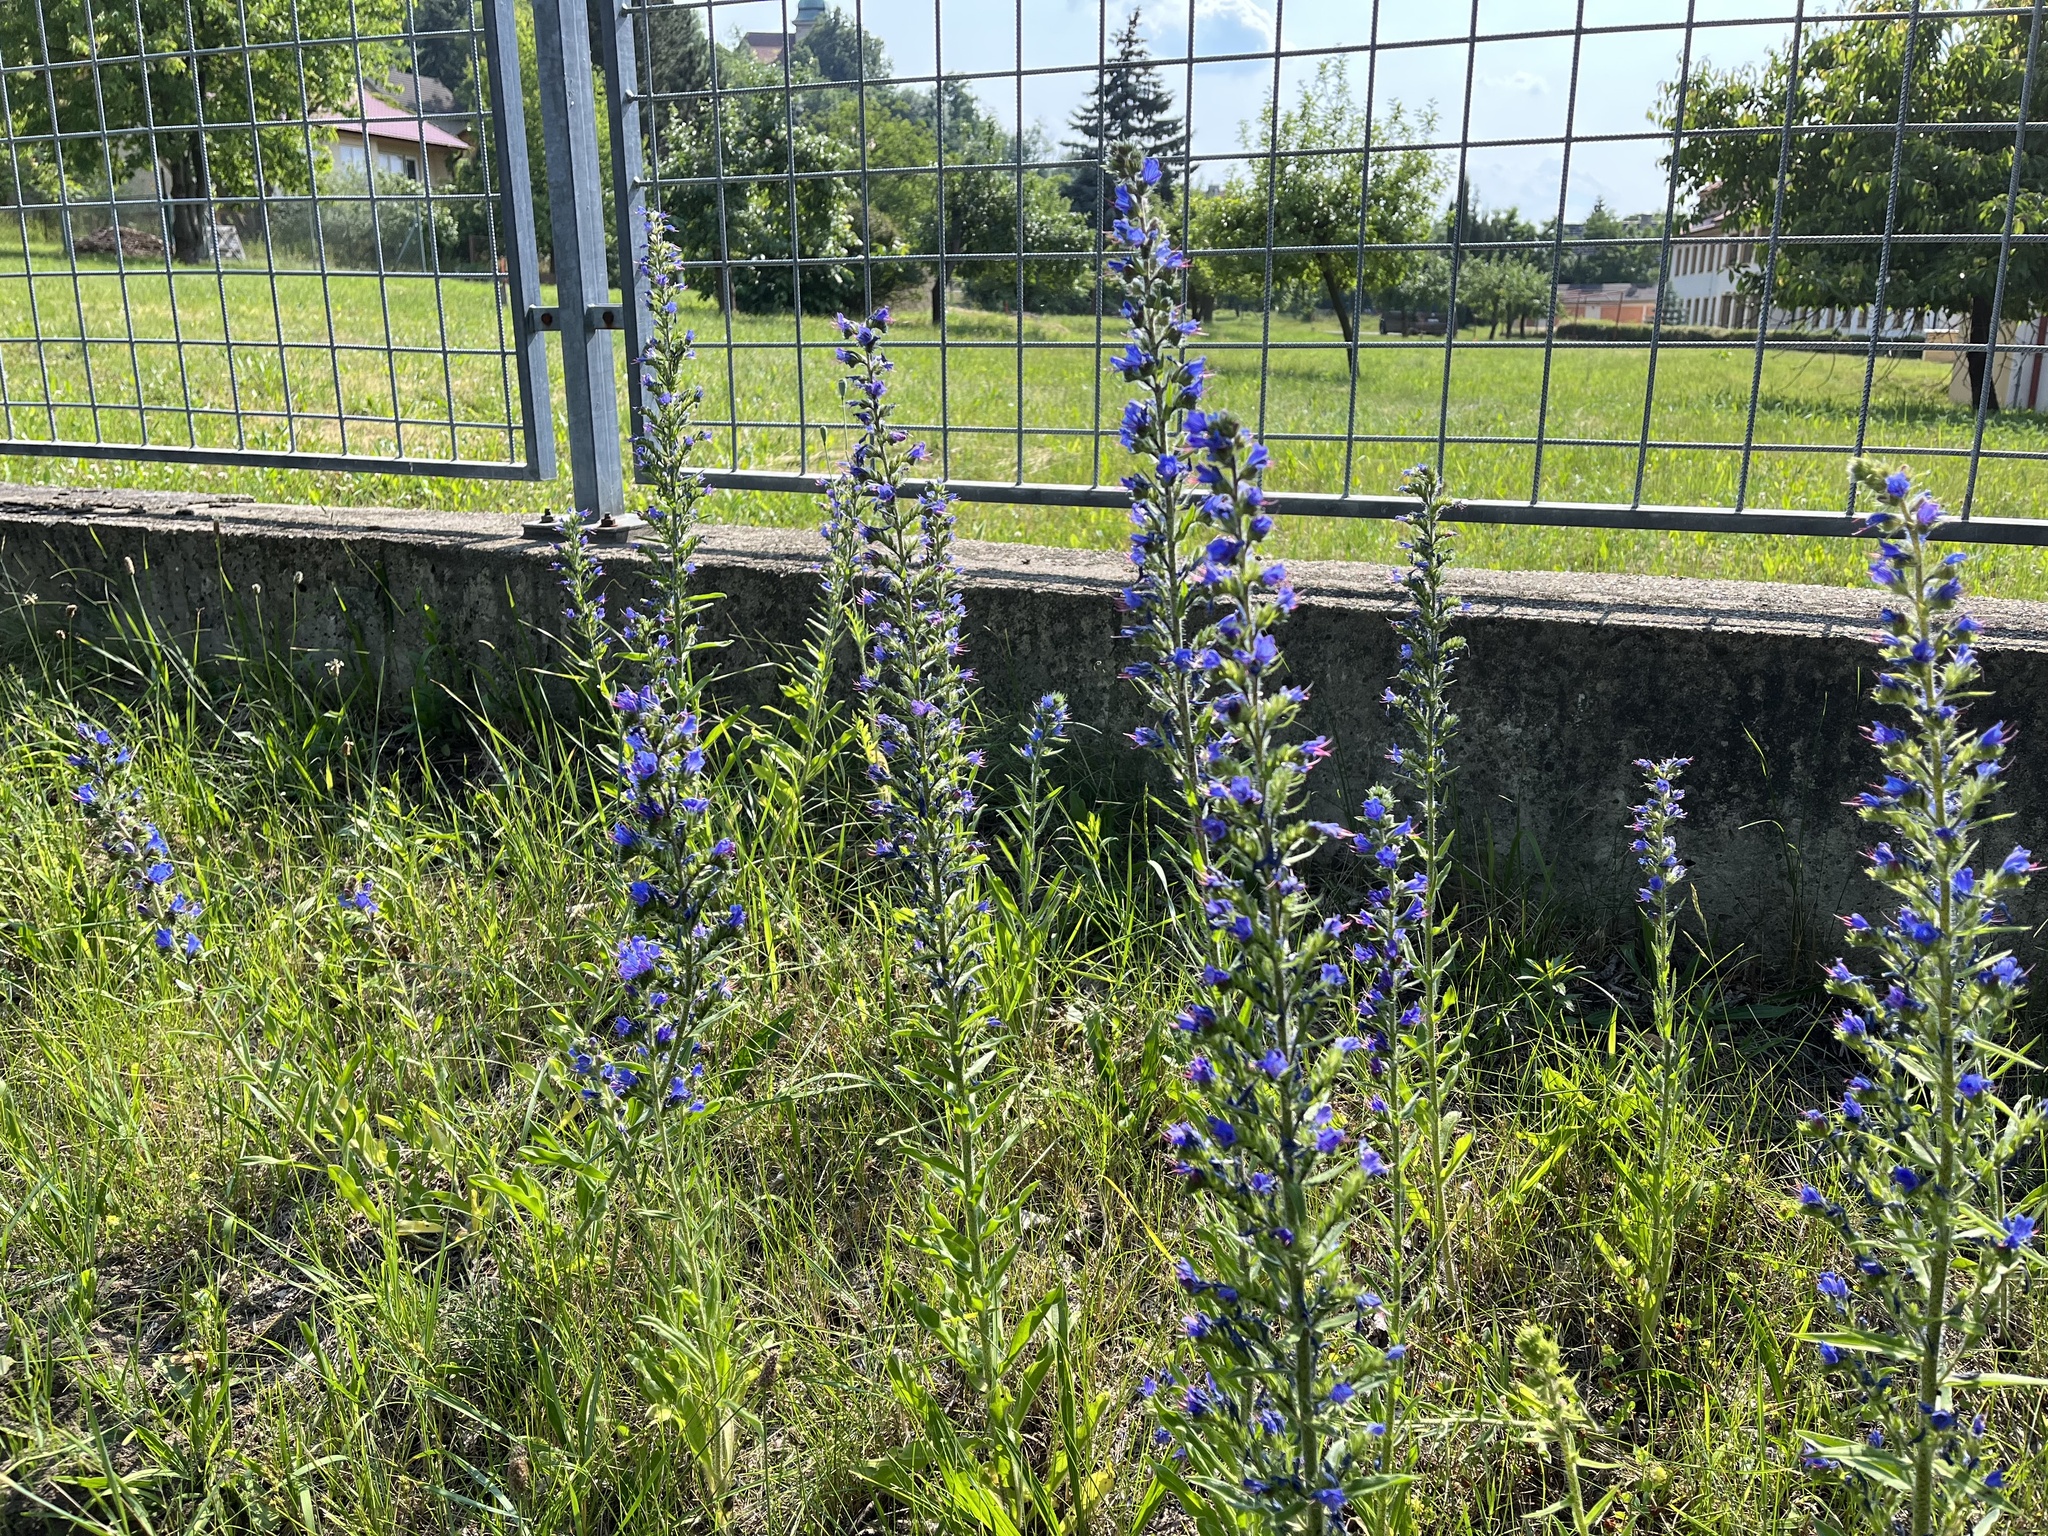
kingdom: Plantae
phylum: Tracheophyta
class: Magnoliopsida
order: Boraginales
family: Boraginaceae
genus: Echium
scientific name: Echium vulgare
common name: Common viper's bugloss
